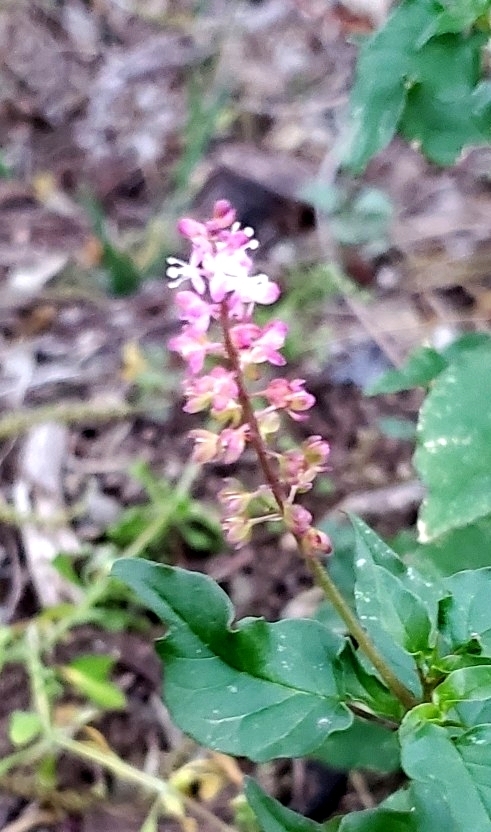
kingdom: Plantae
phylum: Tracheophyta
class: Magnoliopsida
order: Caryophyllales
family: Phytolaccaceae
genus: Rivina
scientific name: Rivina humilis
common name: Rougeplant
